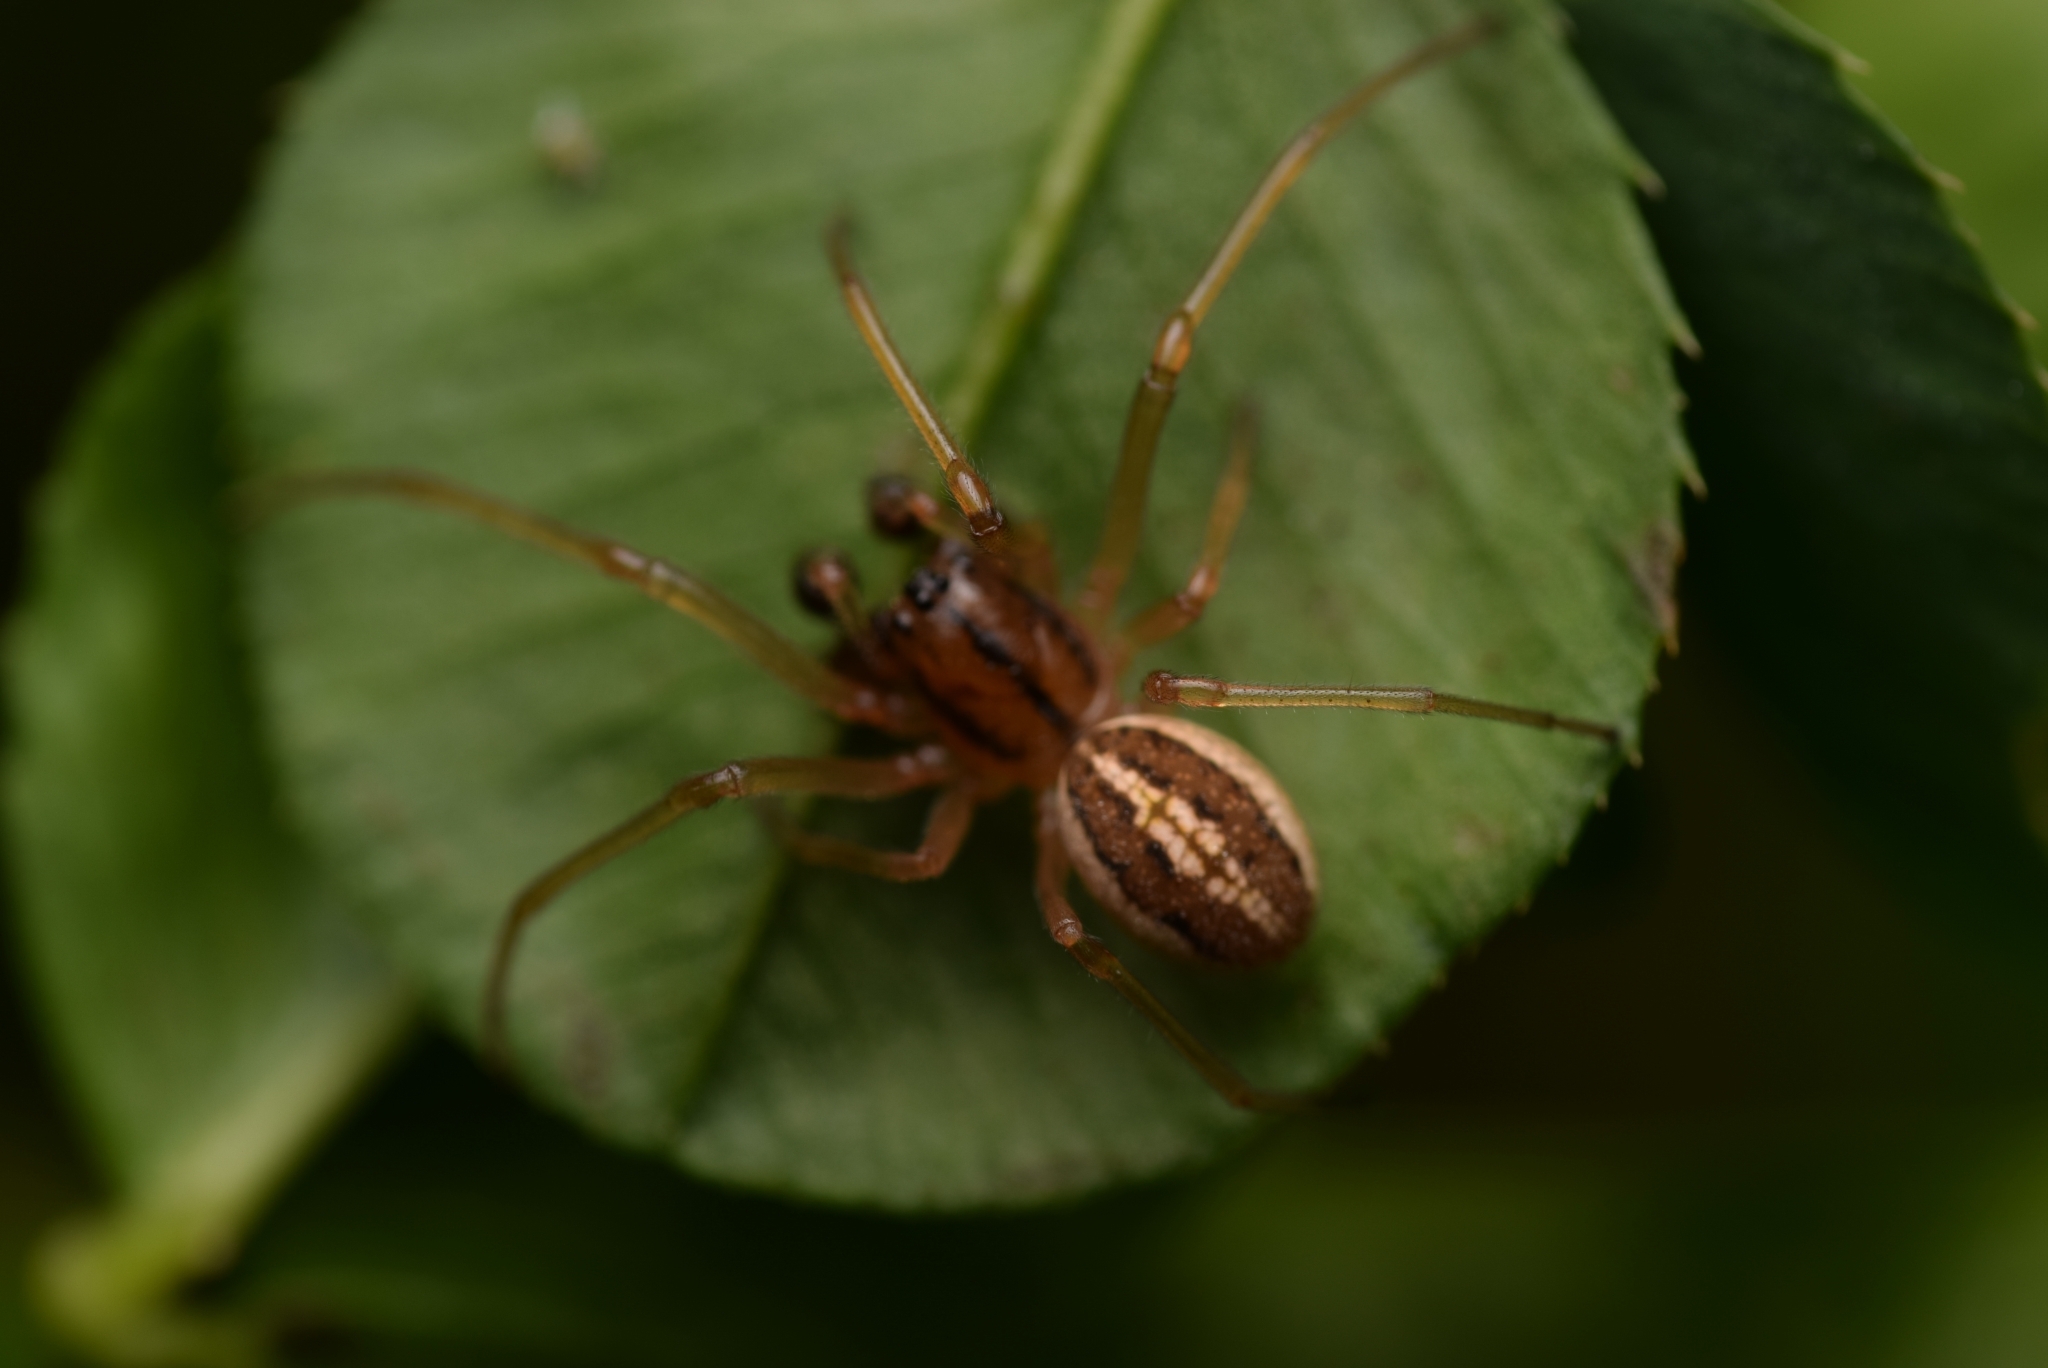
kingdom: Animalia
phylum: Arthropoda
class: Arachnida
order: Araneae
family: Tetragnathidae
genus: Pachygnatha
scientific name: Pachygnatha clercki
